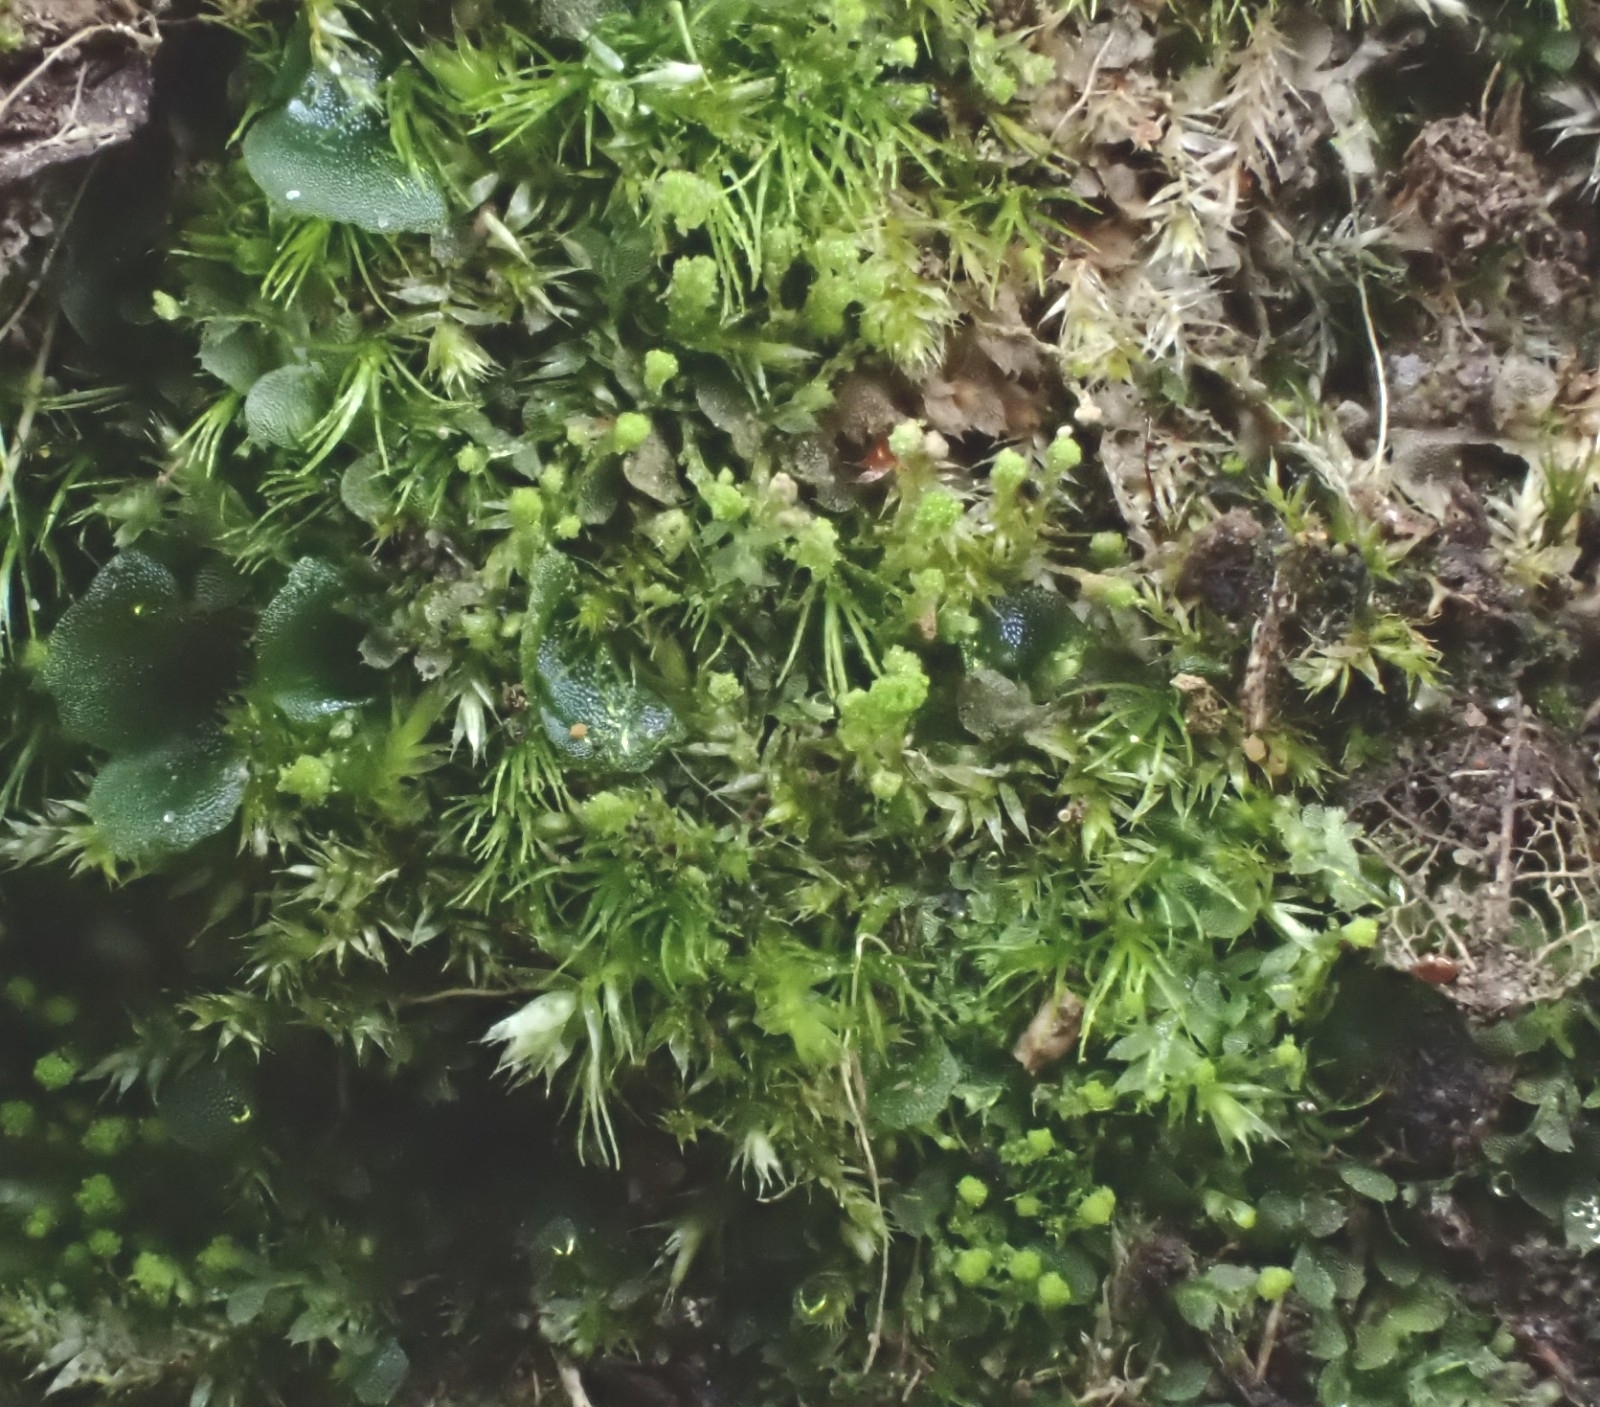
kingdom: Plantae
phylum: Marchantiophyta
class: Jungermanniopsida
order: Jungermanniales
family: Calypogeiaceae
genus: Asperifolia
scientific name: Asperifolia arguta
